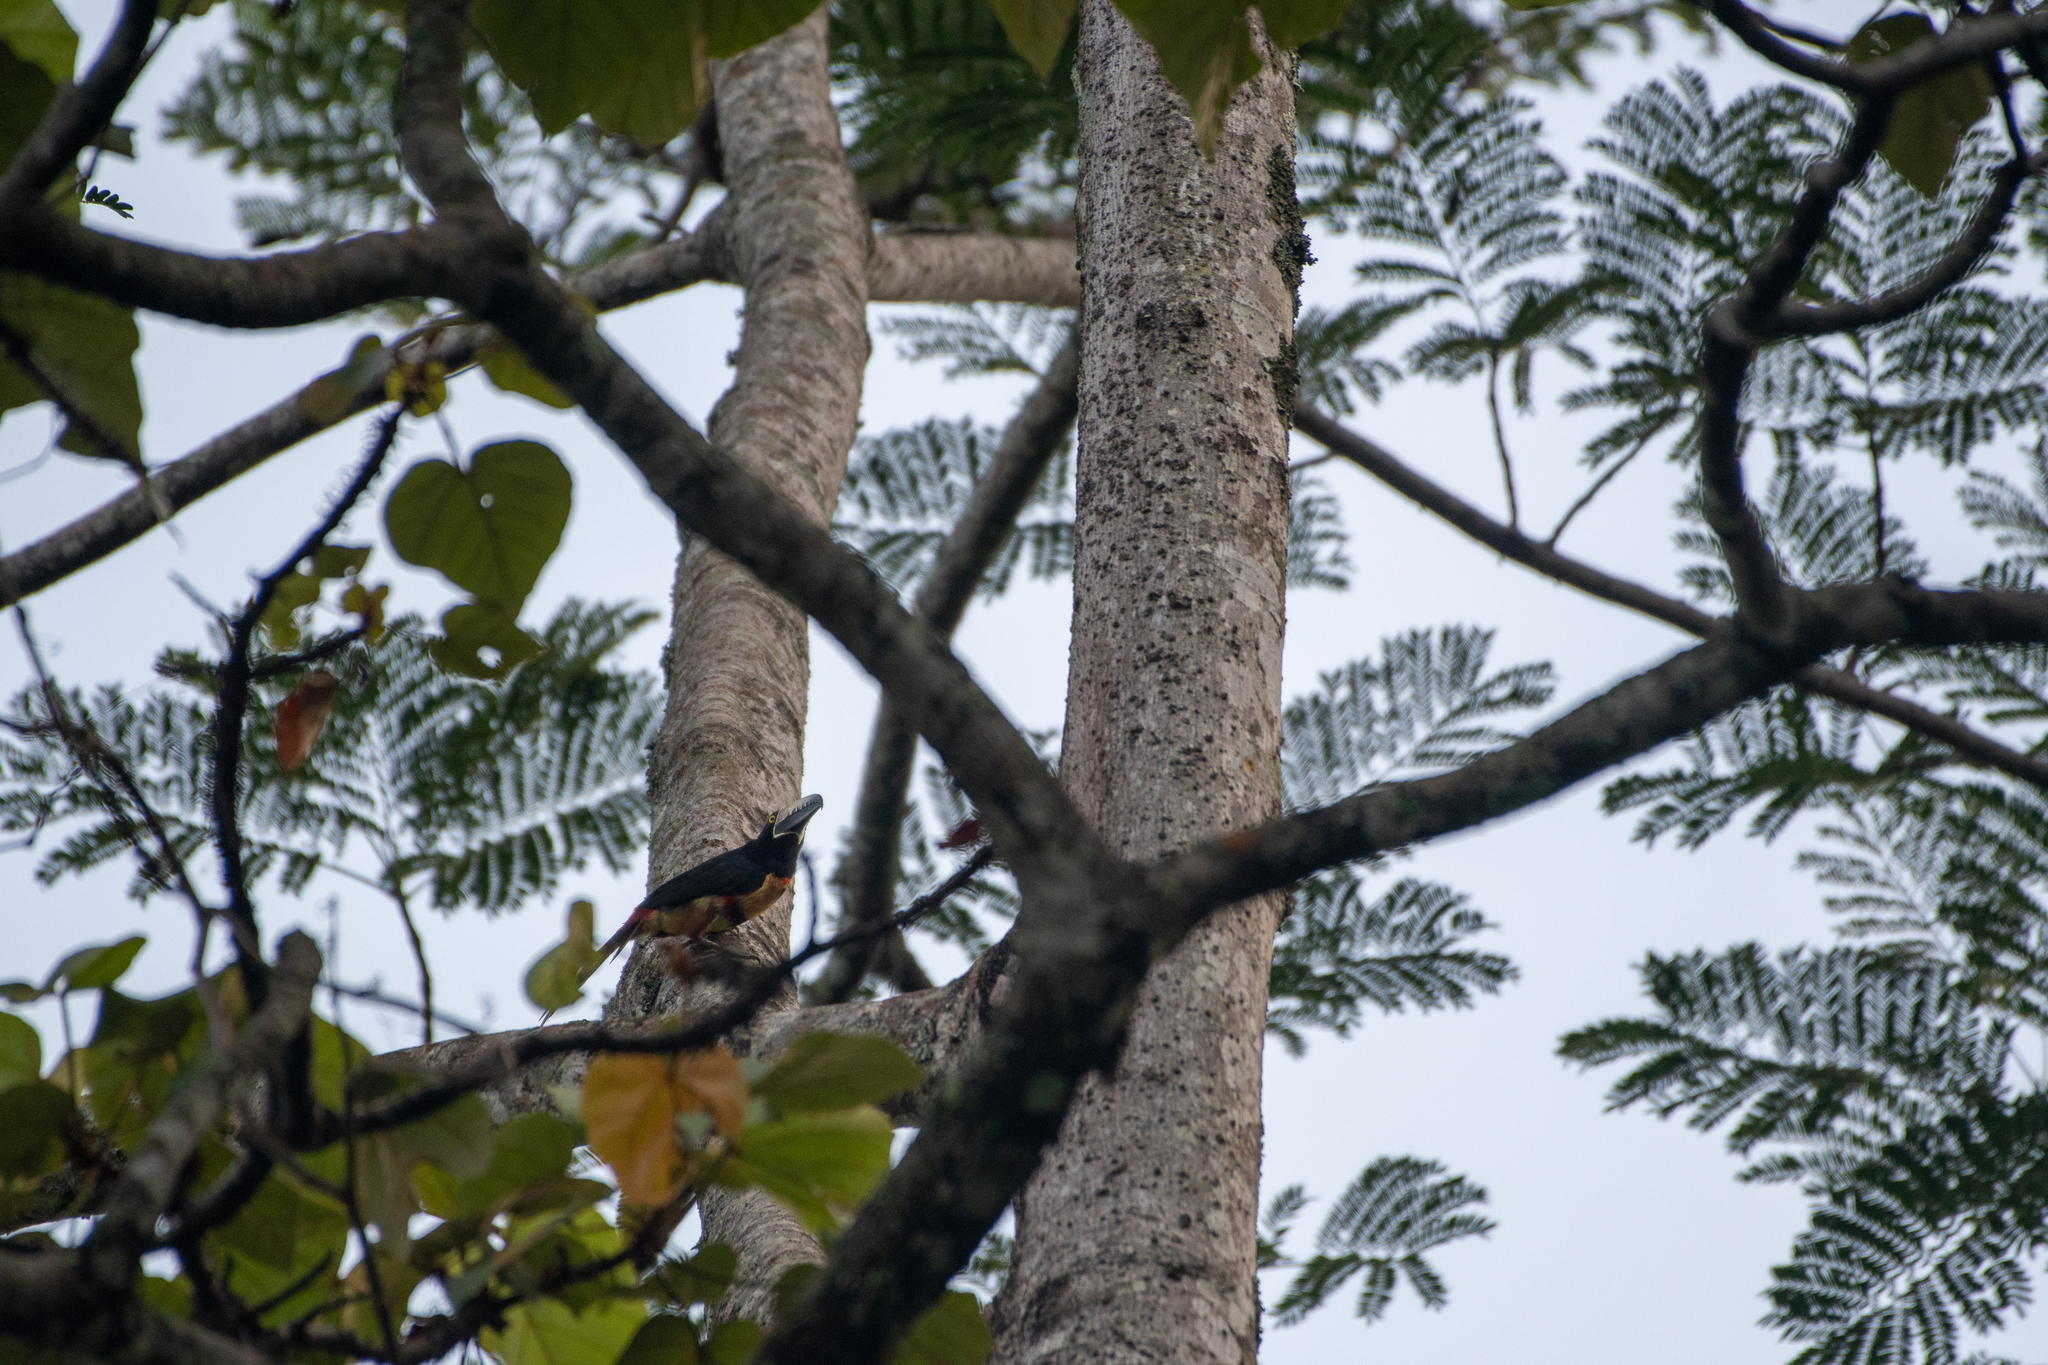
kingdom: Animalia
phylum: Chordata
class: Aves
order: Piciformes
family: Ramphastidae
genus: Pteroglossus
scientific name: Pteroglossus torquatus
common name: Collared aracari
